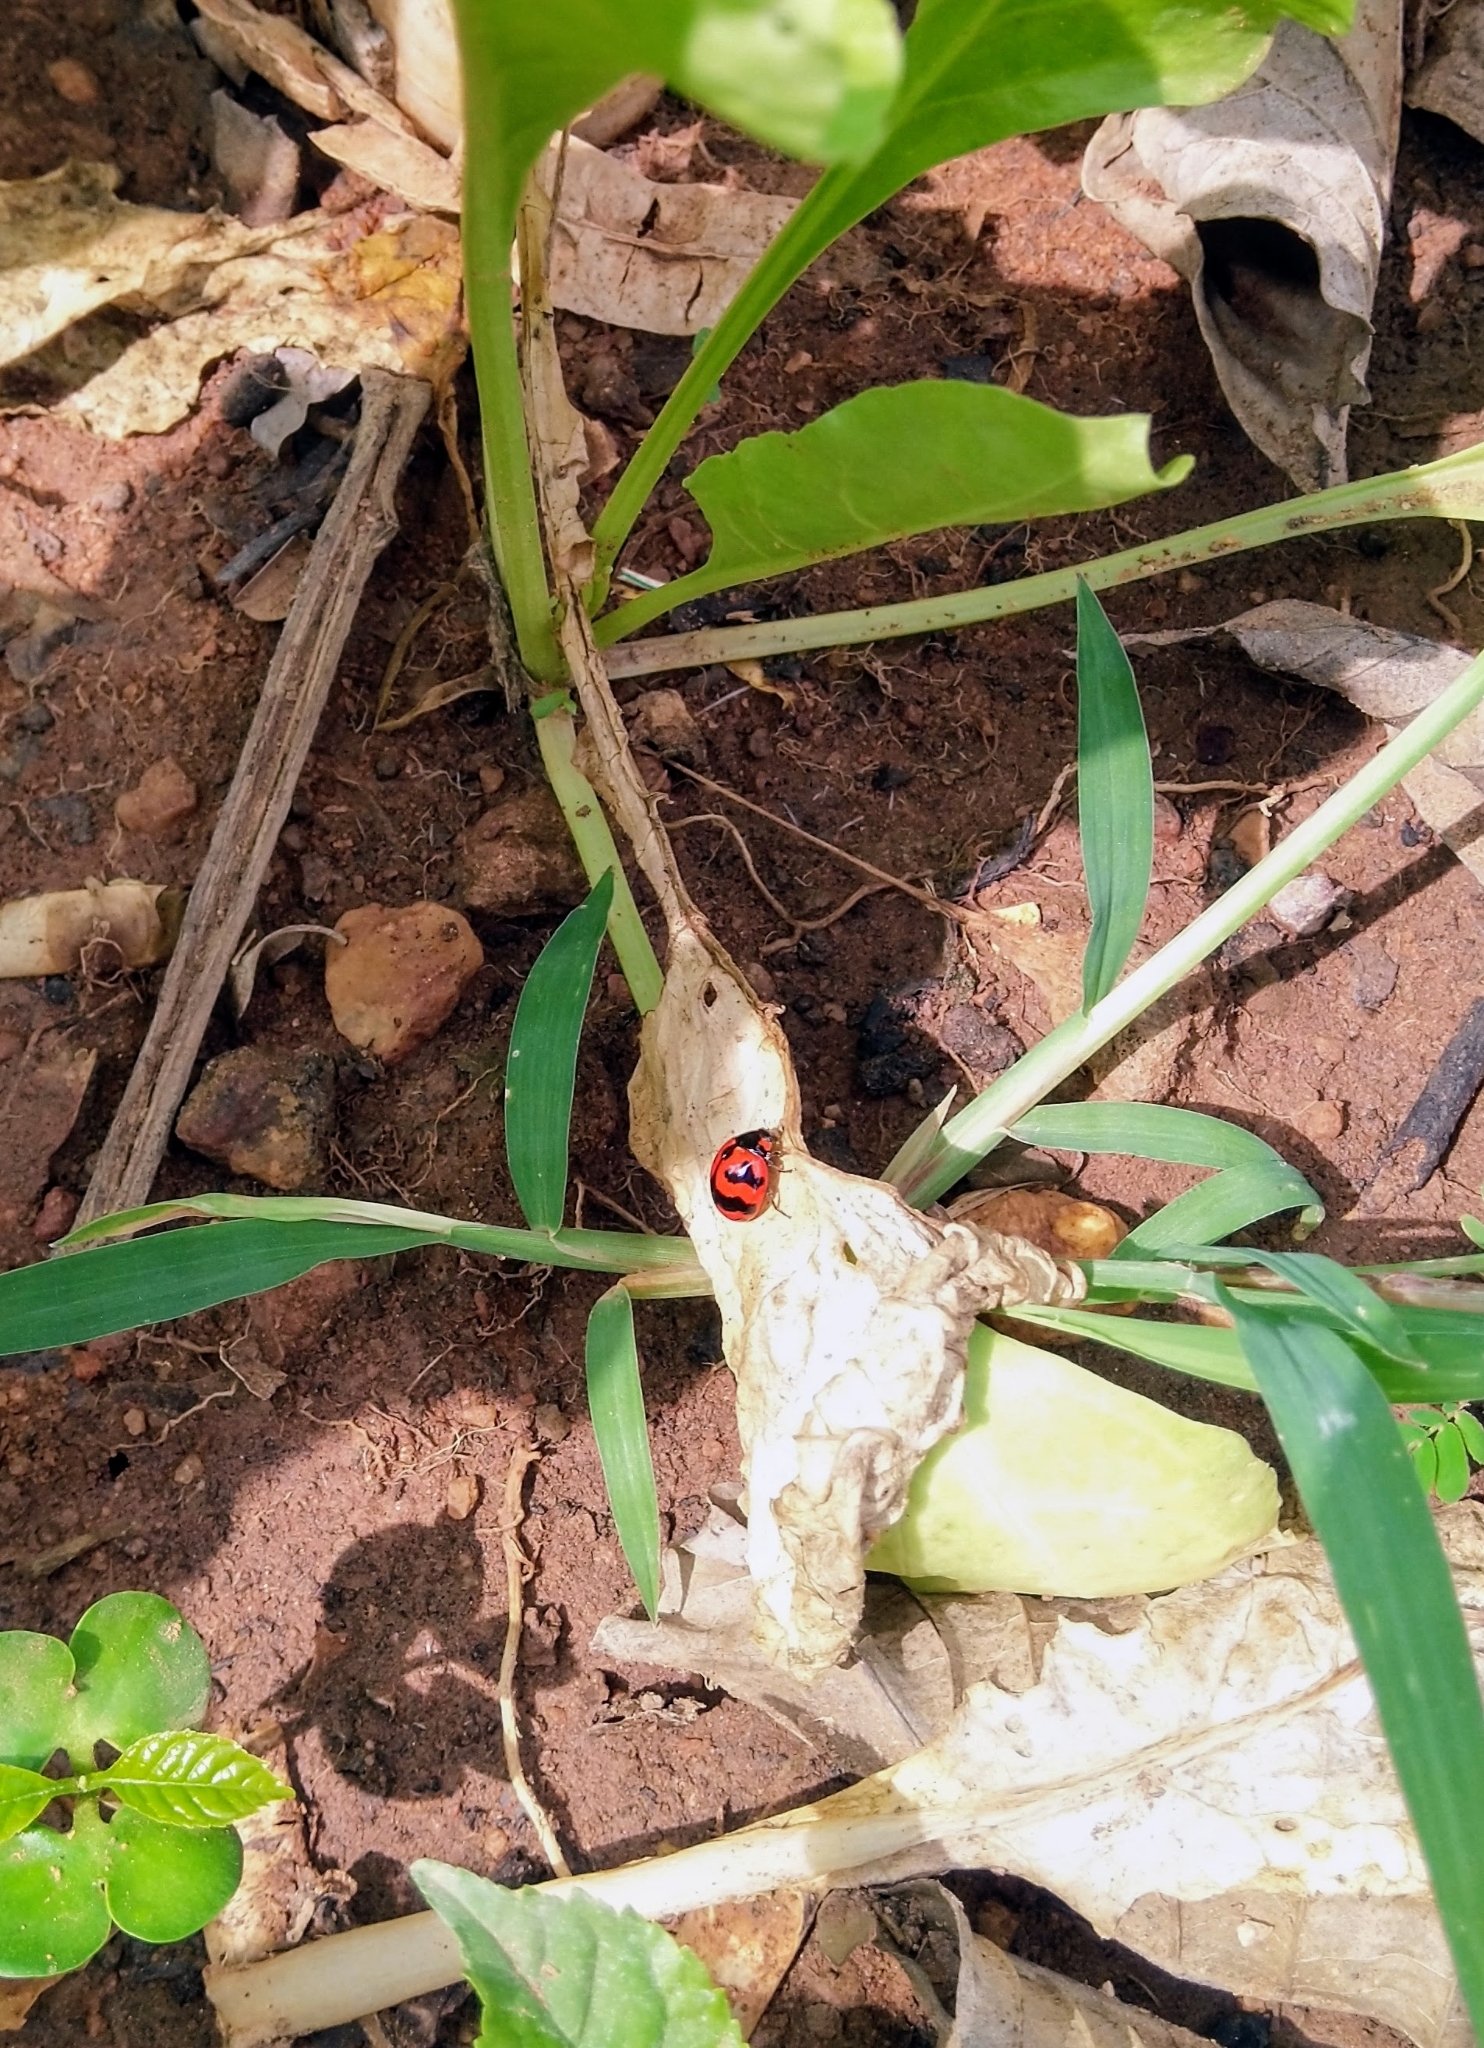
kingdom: Animalia
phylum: Arthropoda
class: Insecta
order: Coleoptera
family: Coccinellidae
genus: Coccinella
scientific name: Coccinella transversalis
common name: Transverse lady beetle
